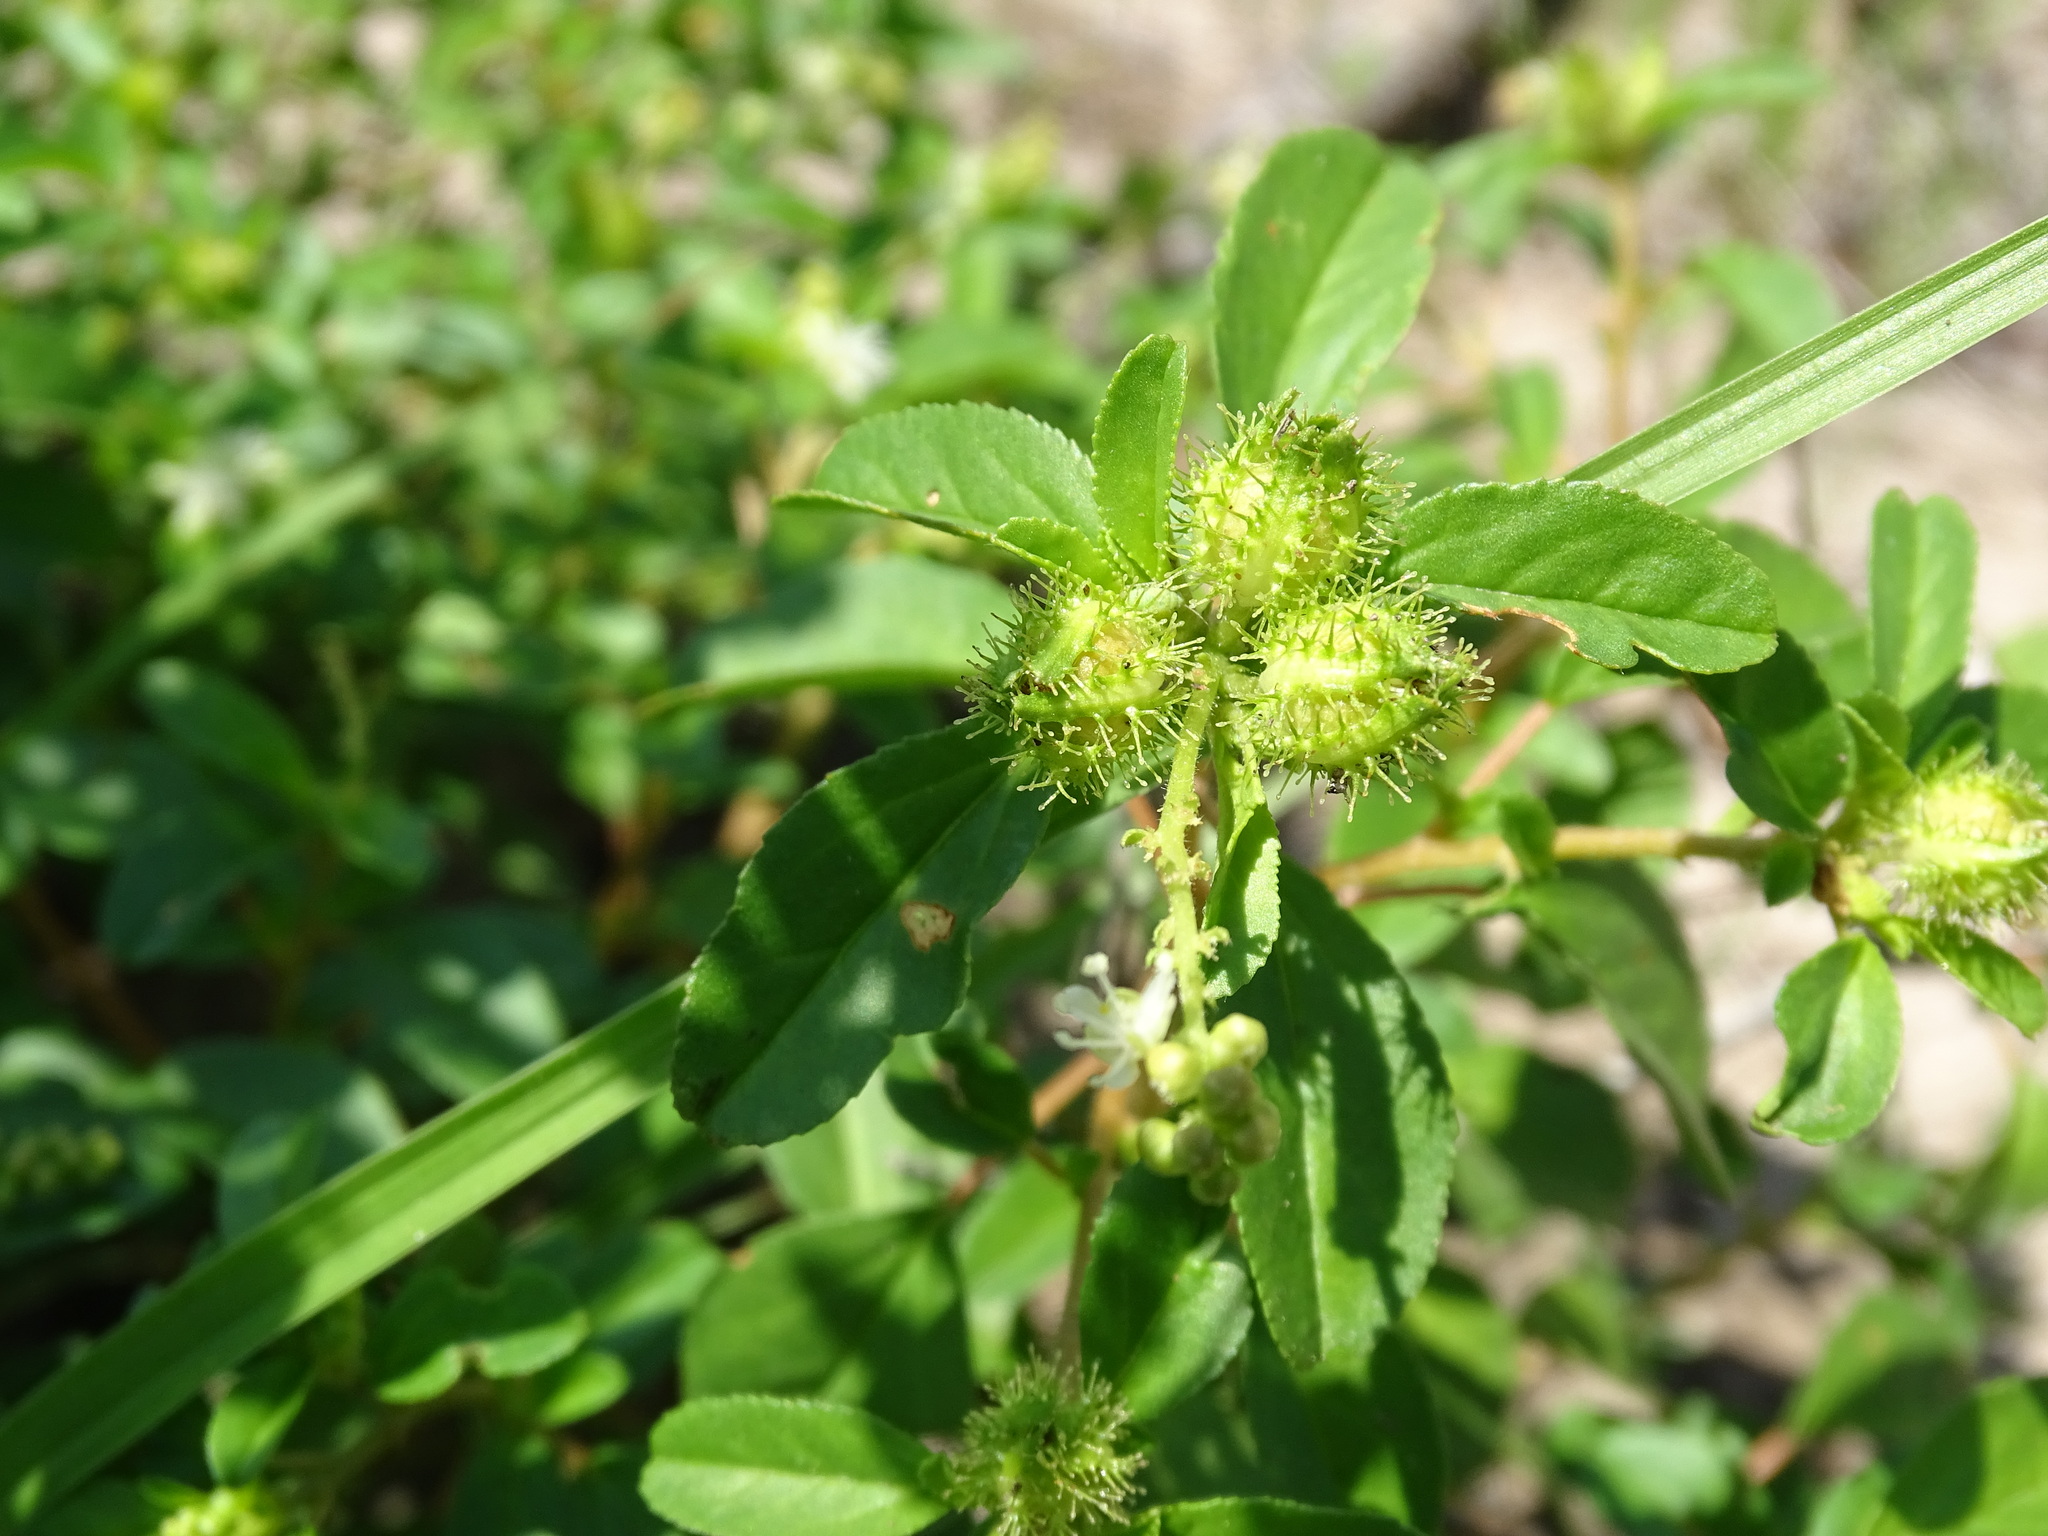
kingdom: Plantae
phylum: Tracheophyta
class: Magnoliopsida
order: Malpighiales
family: Euphorbiaceae
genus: Croton
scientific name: Croton ovalifolius
